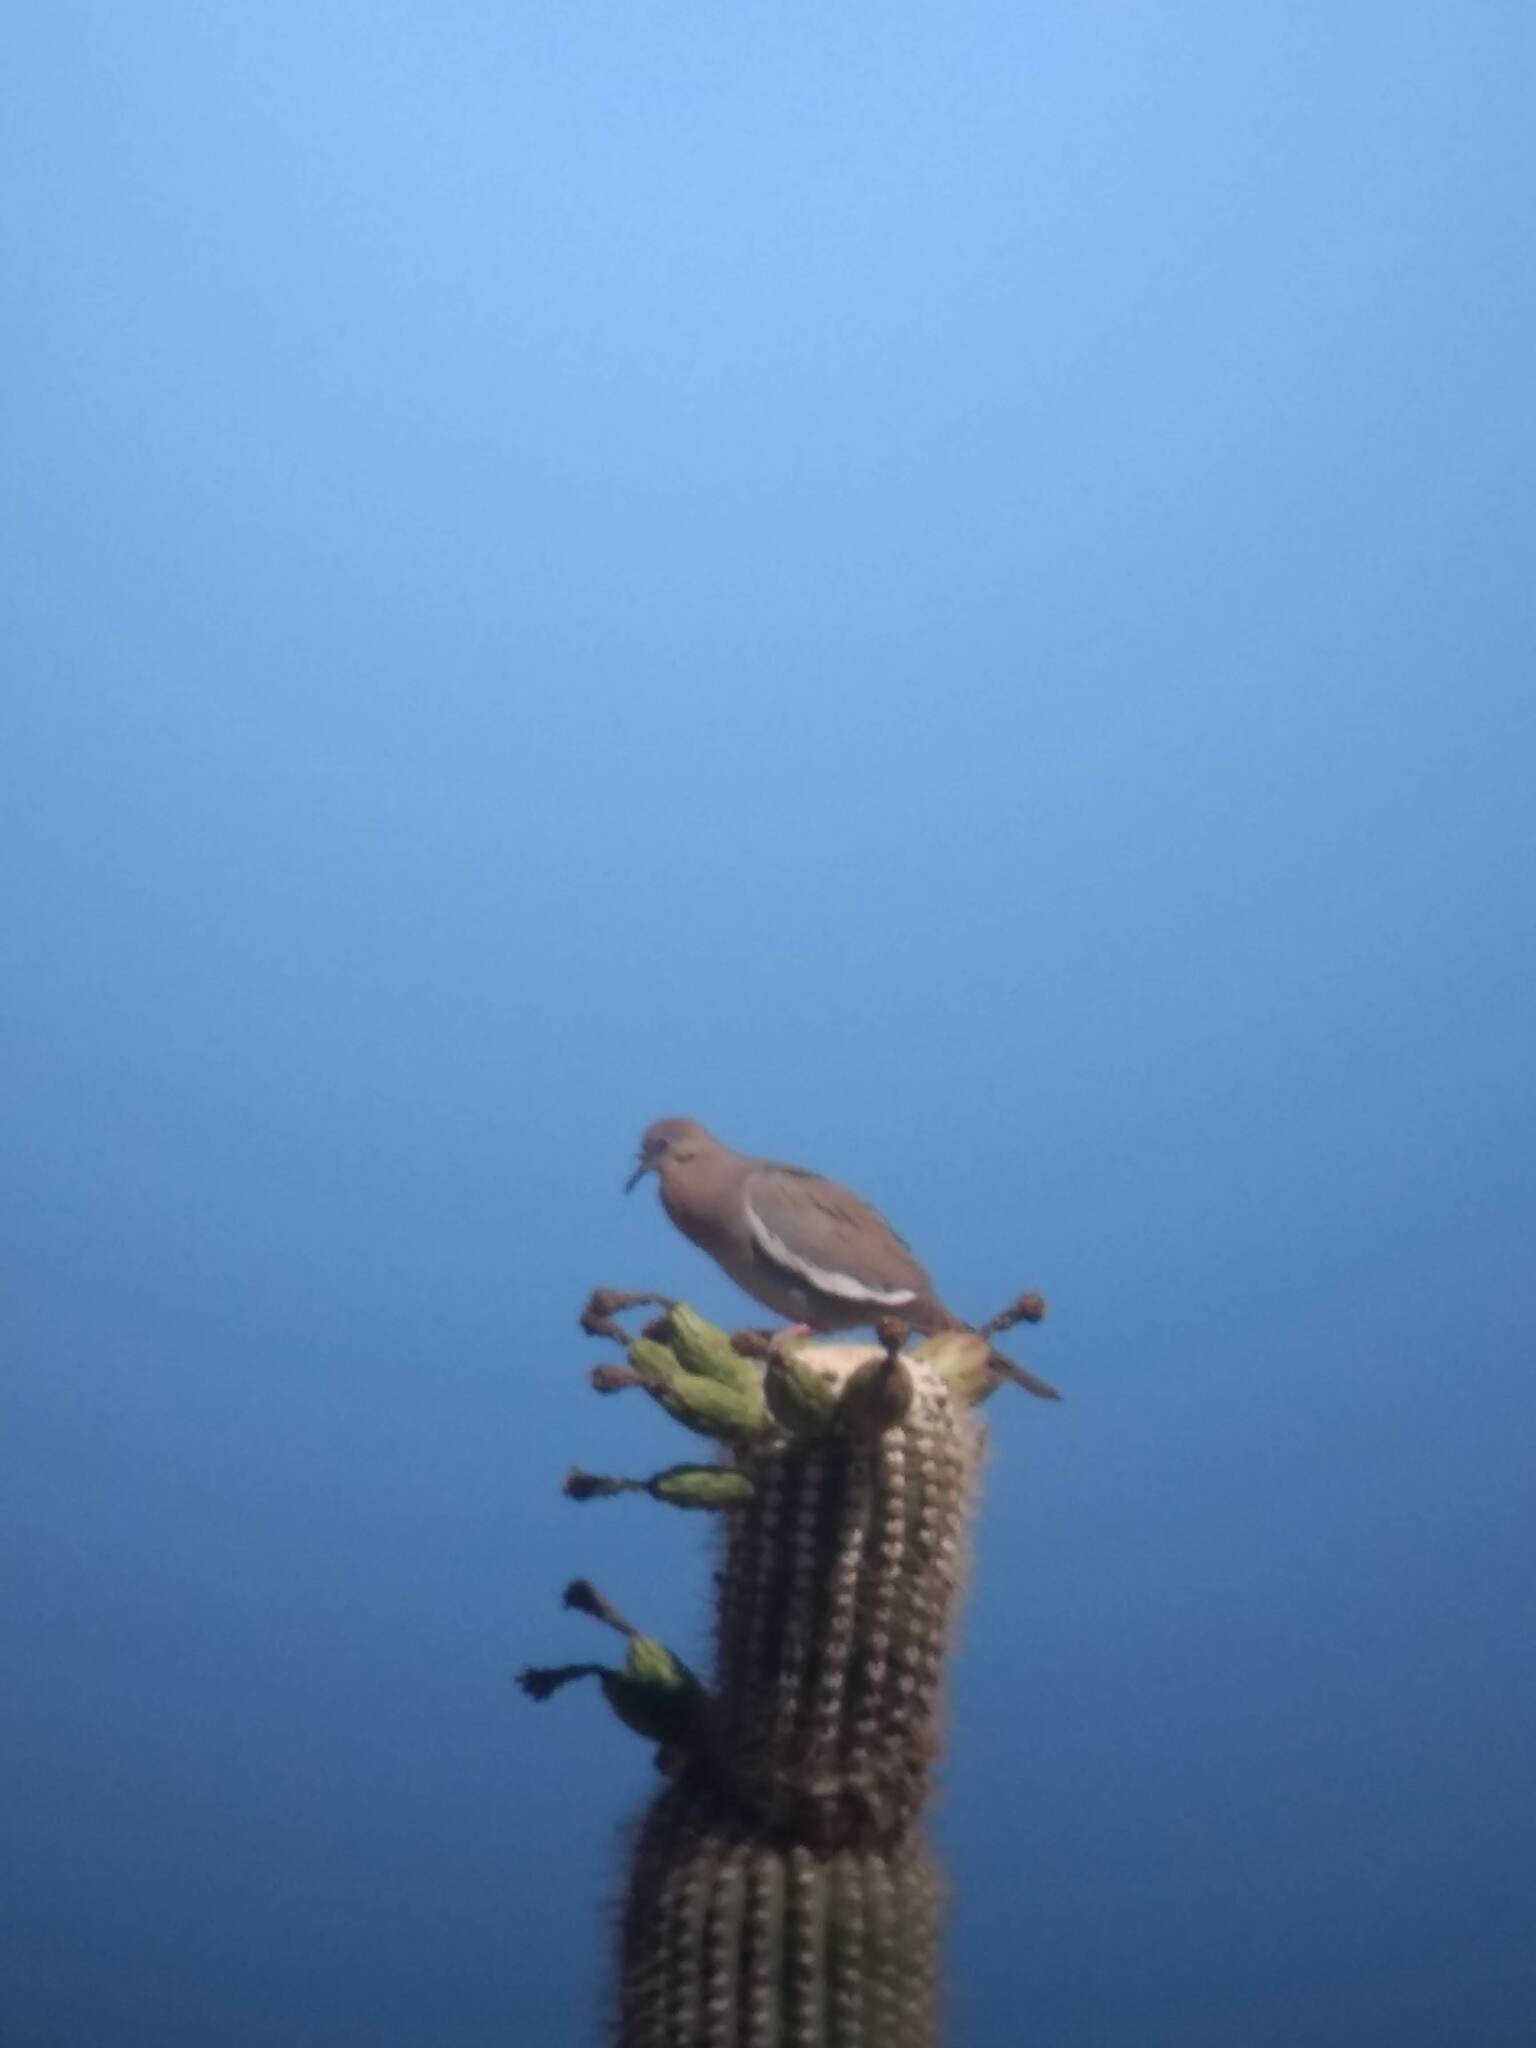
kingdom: Animalia
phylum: Chordata
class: Aves
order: Columbiformes
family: Columbidae
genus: Zenaida
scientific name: Zenaida asiatica
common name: White-winged dove
